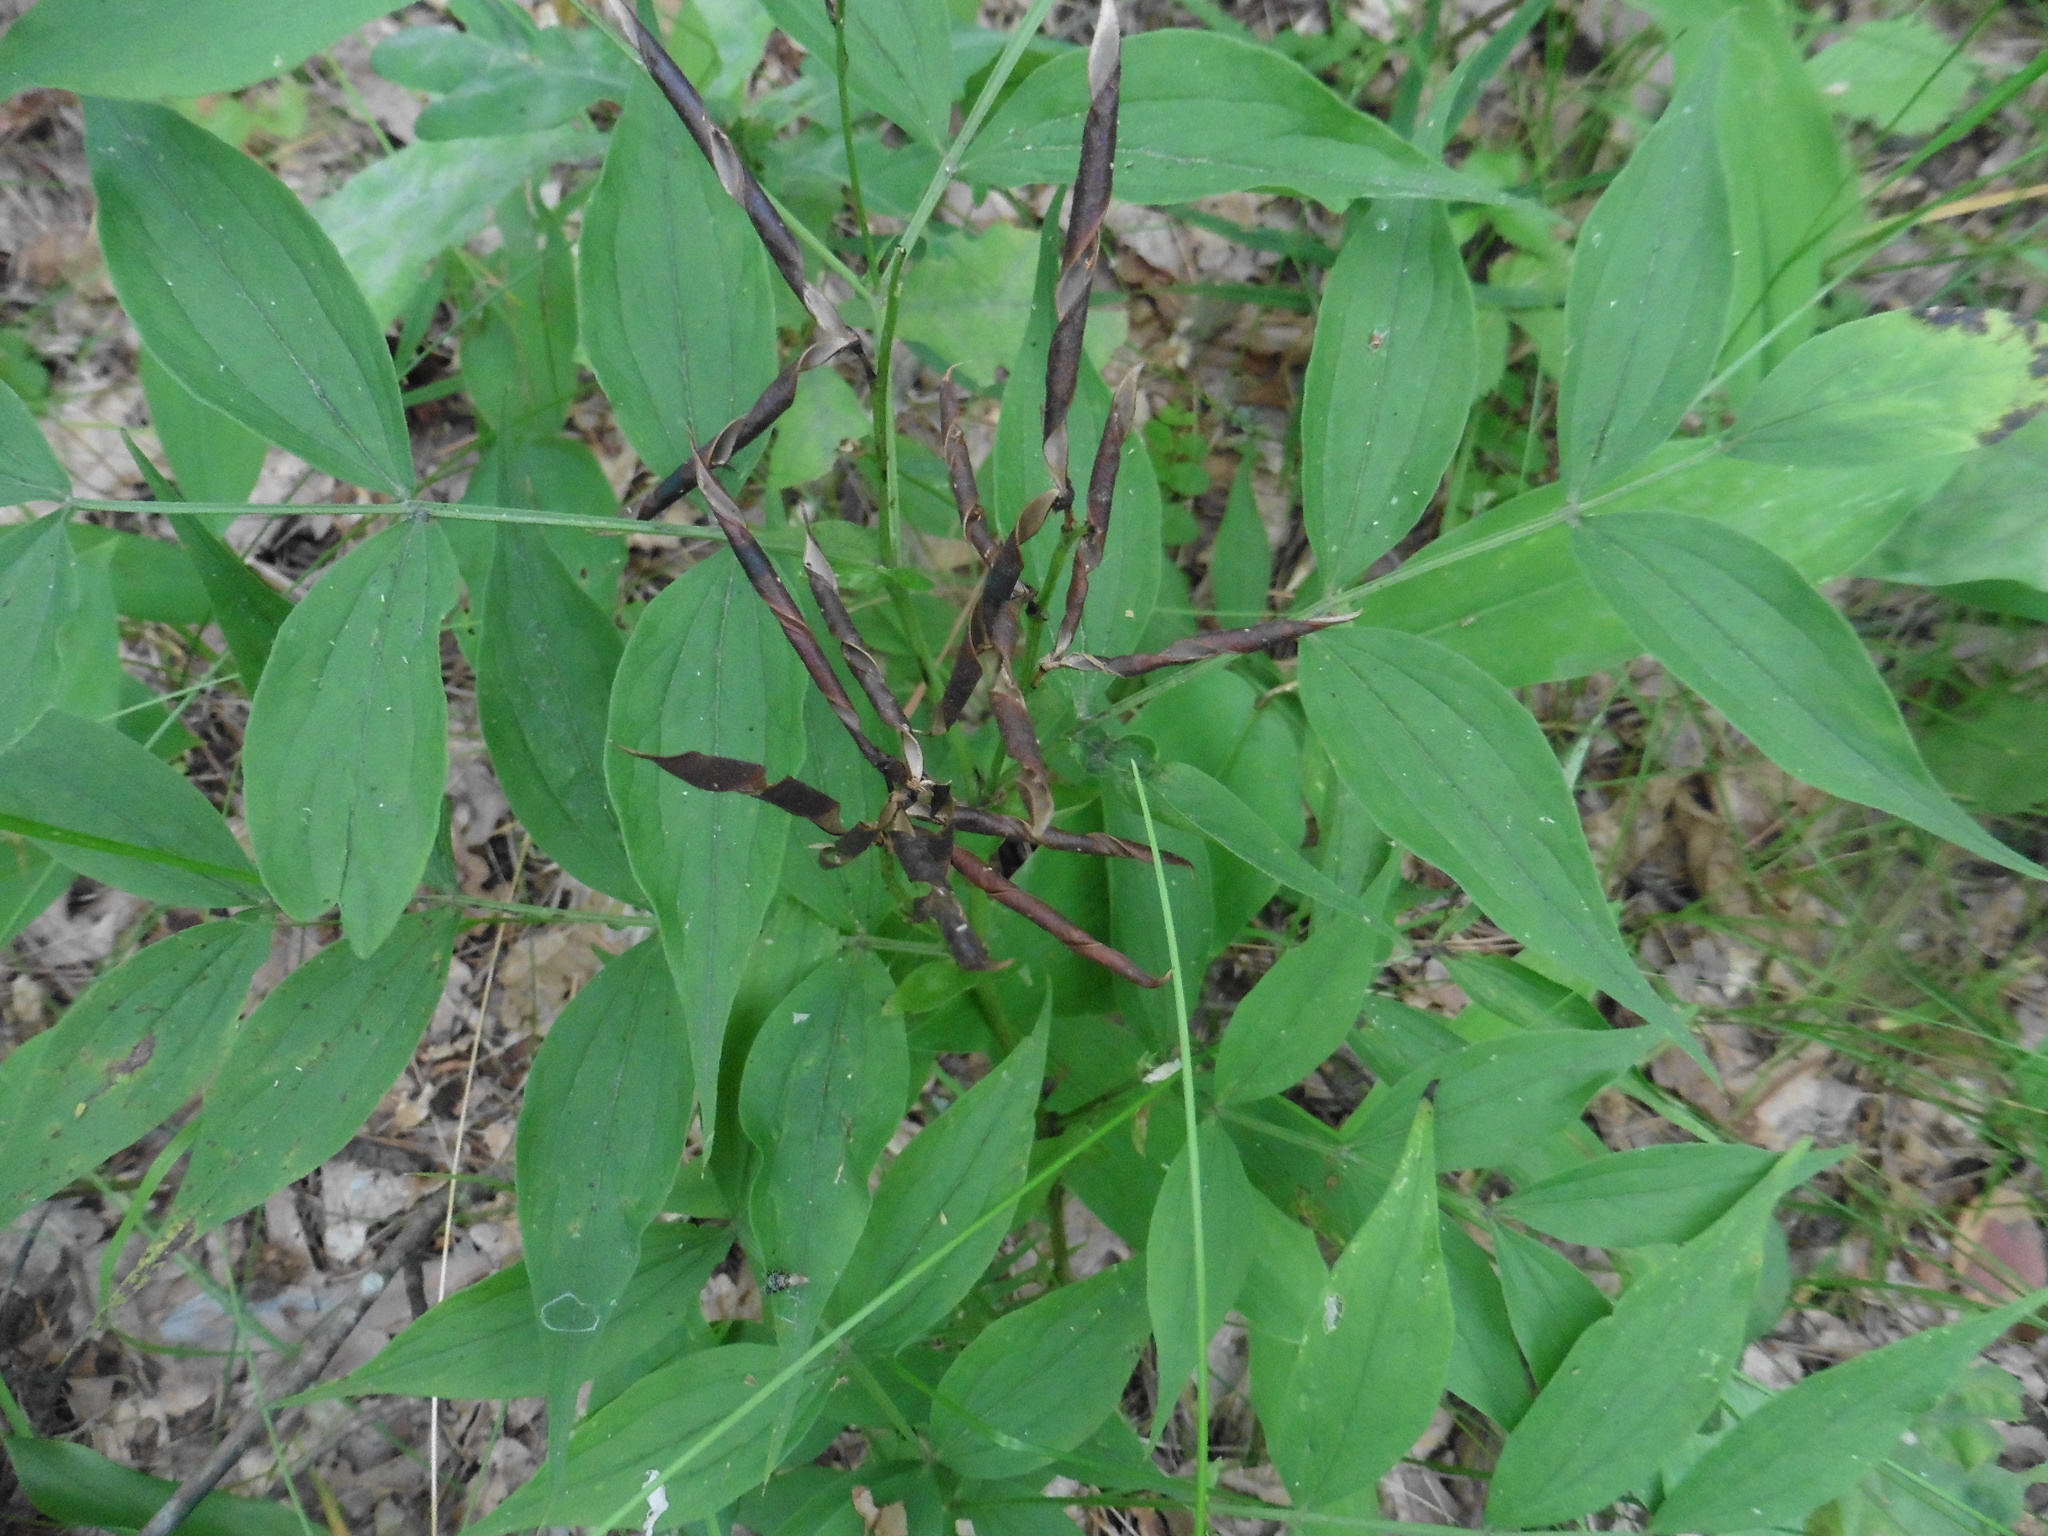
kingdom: Plantae
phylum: Tracheophyta
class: Magnoliopsida
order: Fabales
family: Fabaceae
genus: Lathyrus
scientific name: Lathyrus vernus
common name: Spring pea
